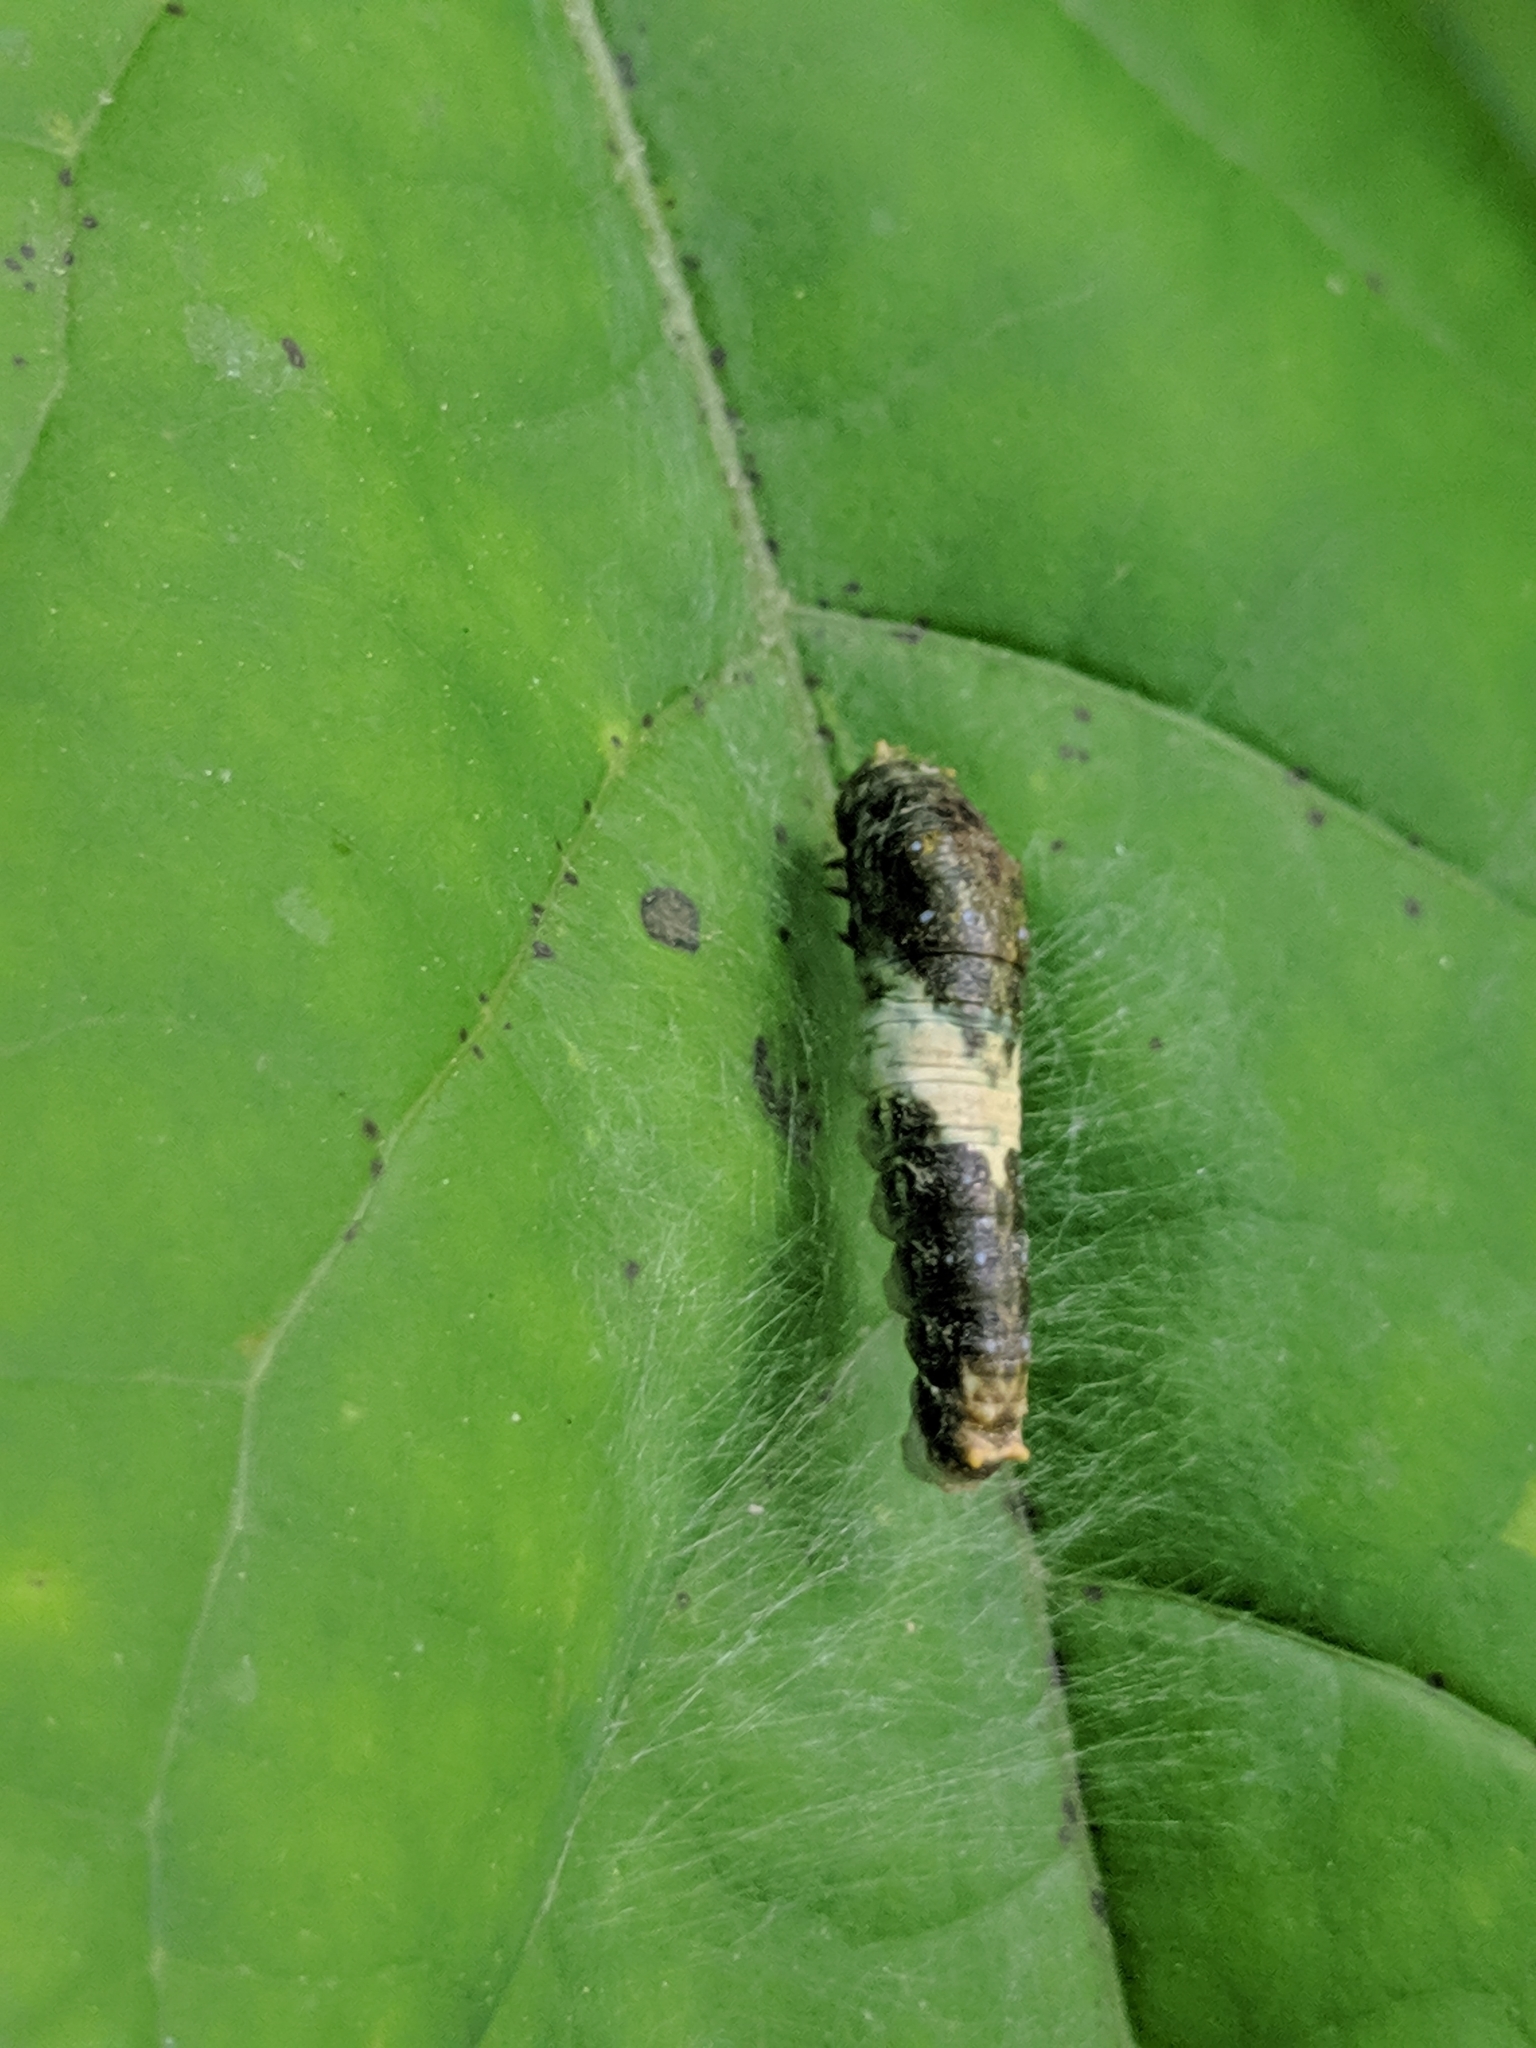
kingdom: Animalia
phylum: Arthropoda
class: Insecta
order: Lepidoptera
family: Papilionidae
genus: Papilio
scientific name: Papilio glaucus
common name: Tiger swallowtail
